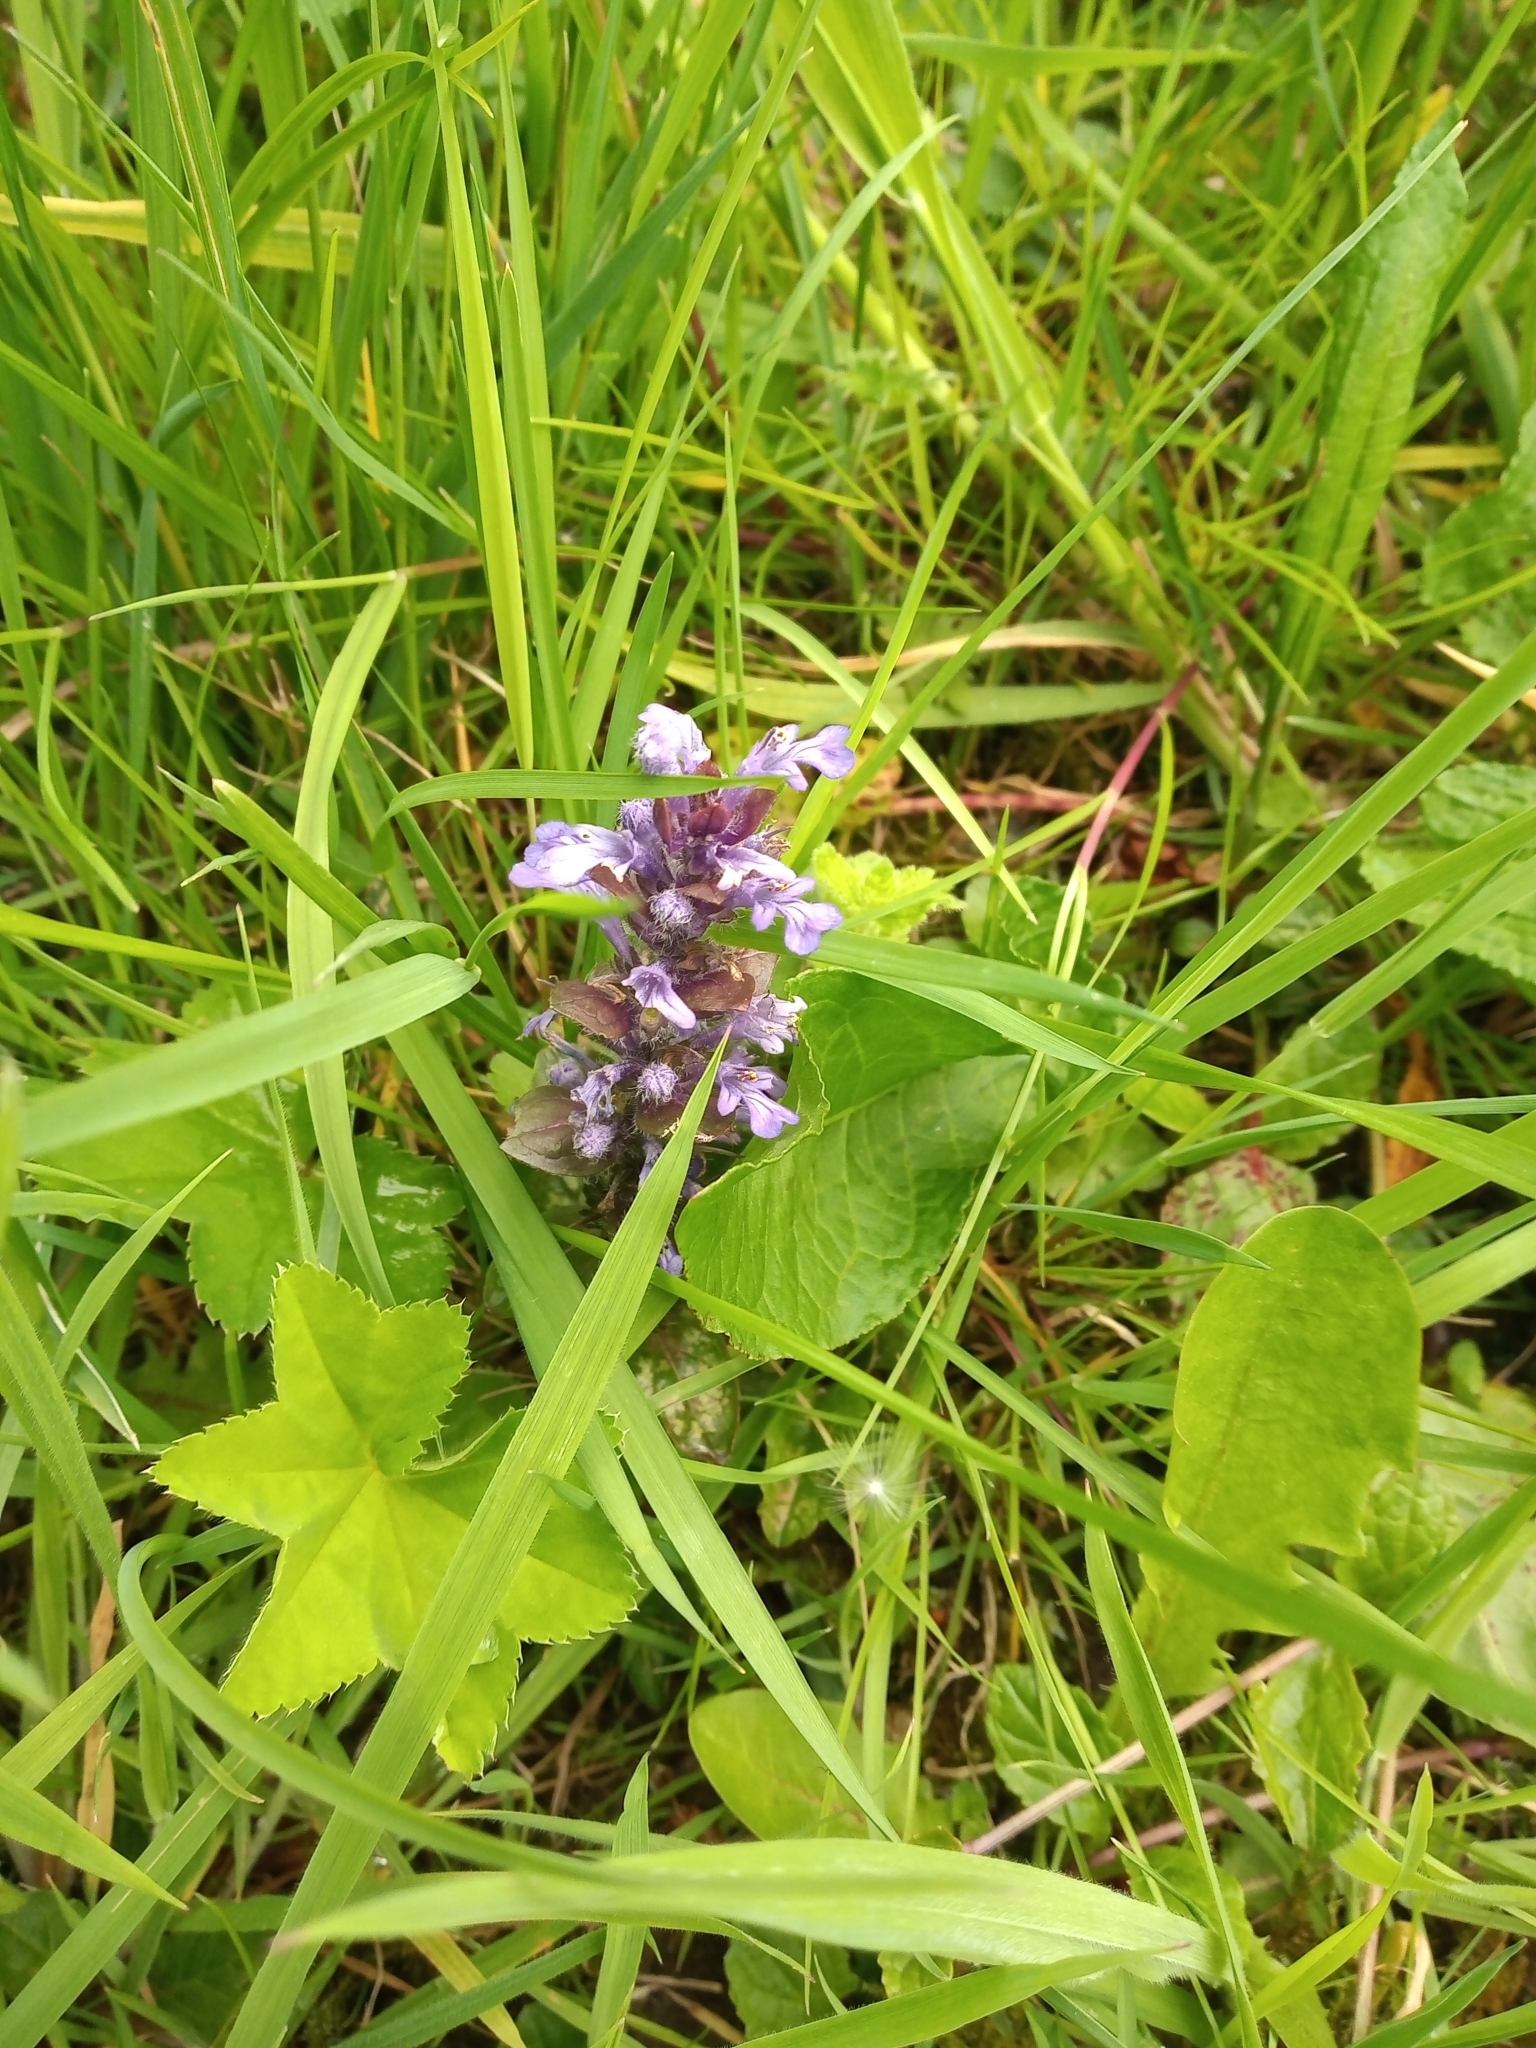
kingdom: Plantae
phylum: Tracheophyta
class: Magnoliopsida
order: Lamiales
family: Lamiaceae
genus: Ajuga
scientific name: Ajuga reptans
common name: Bugle
